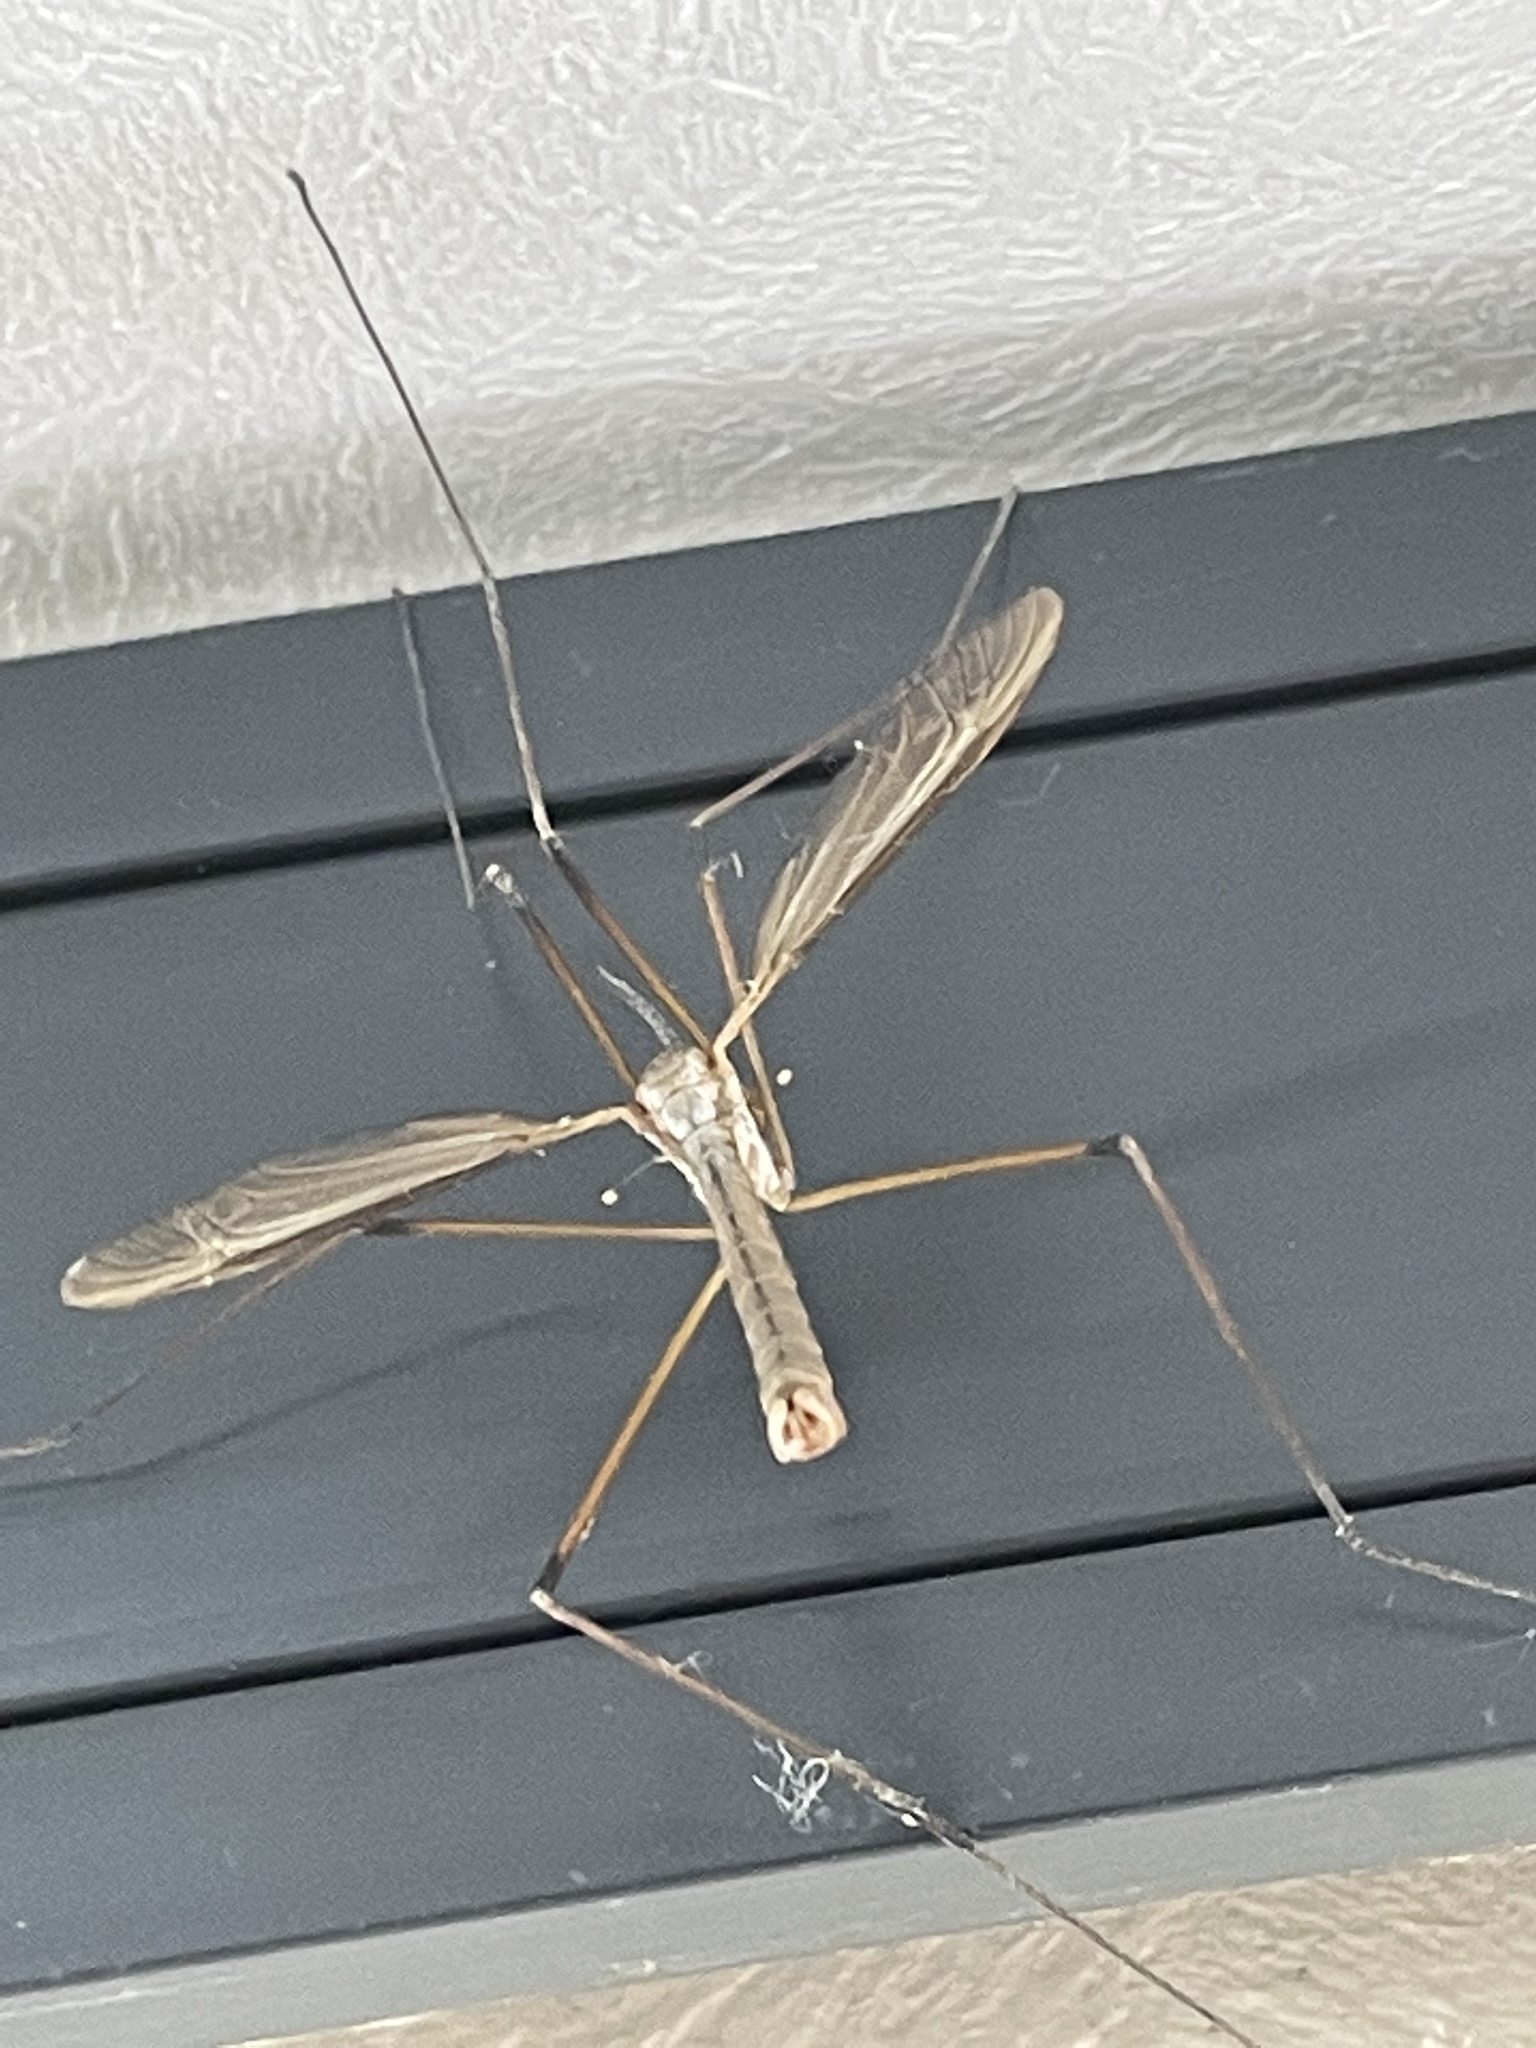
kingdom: Animalia
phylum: Arthropoda
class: Insecta
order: Diptera
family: Tipulidae
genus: Tipula
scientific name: Tipula paludosa
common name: European cranefly
